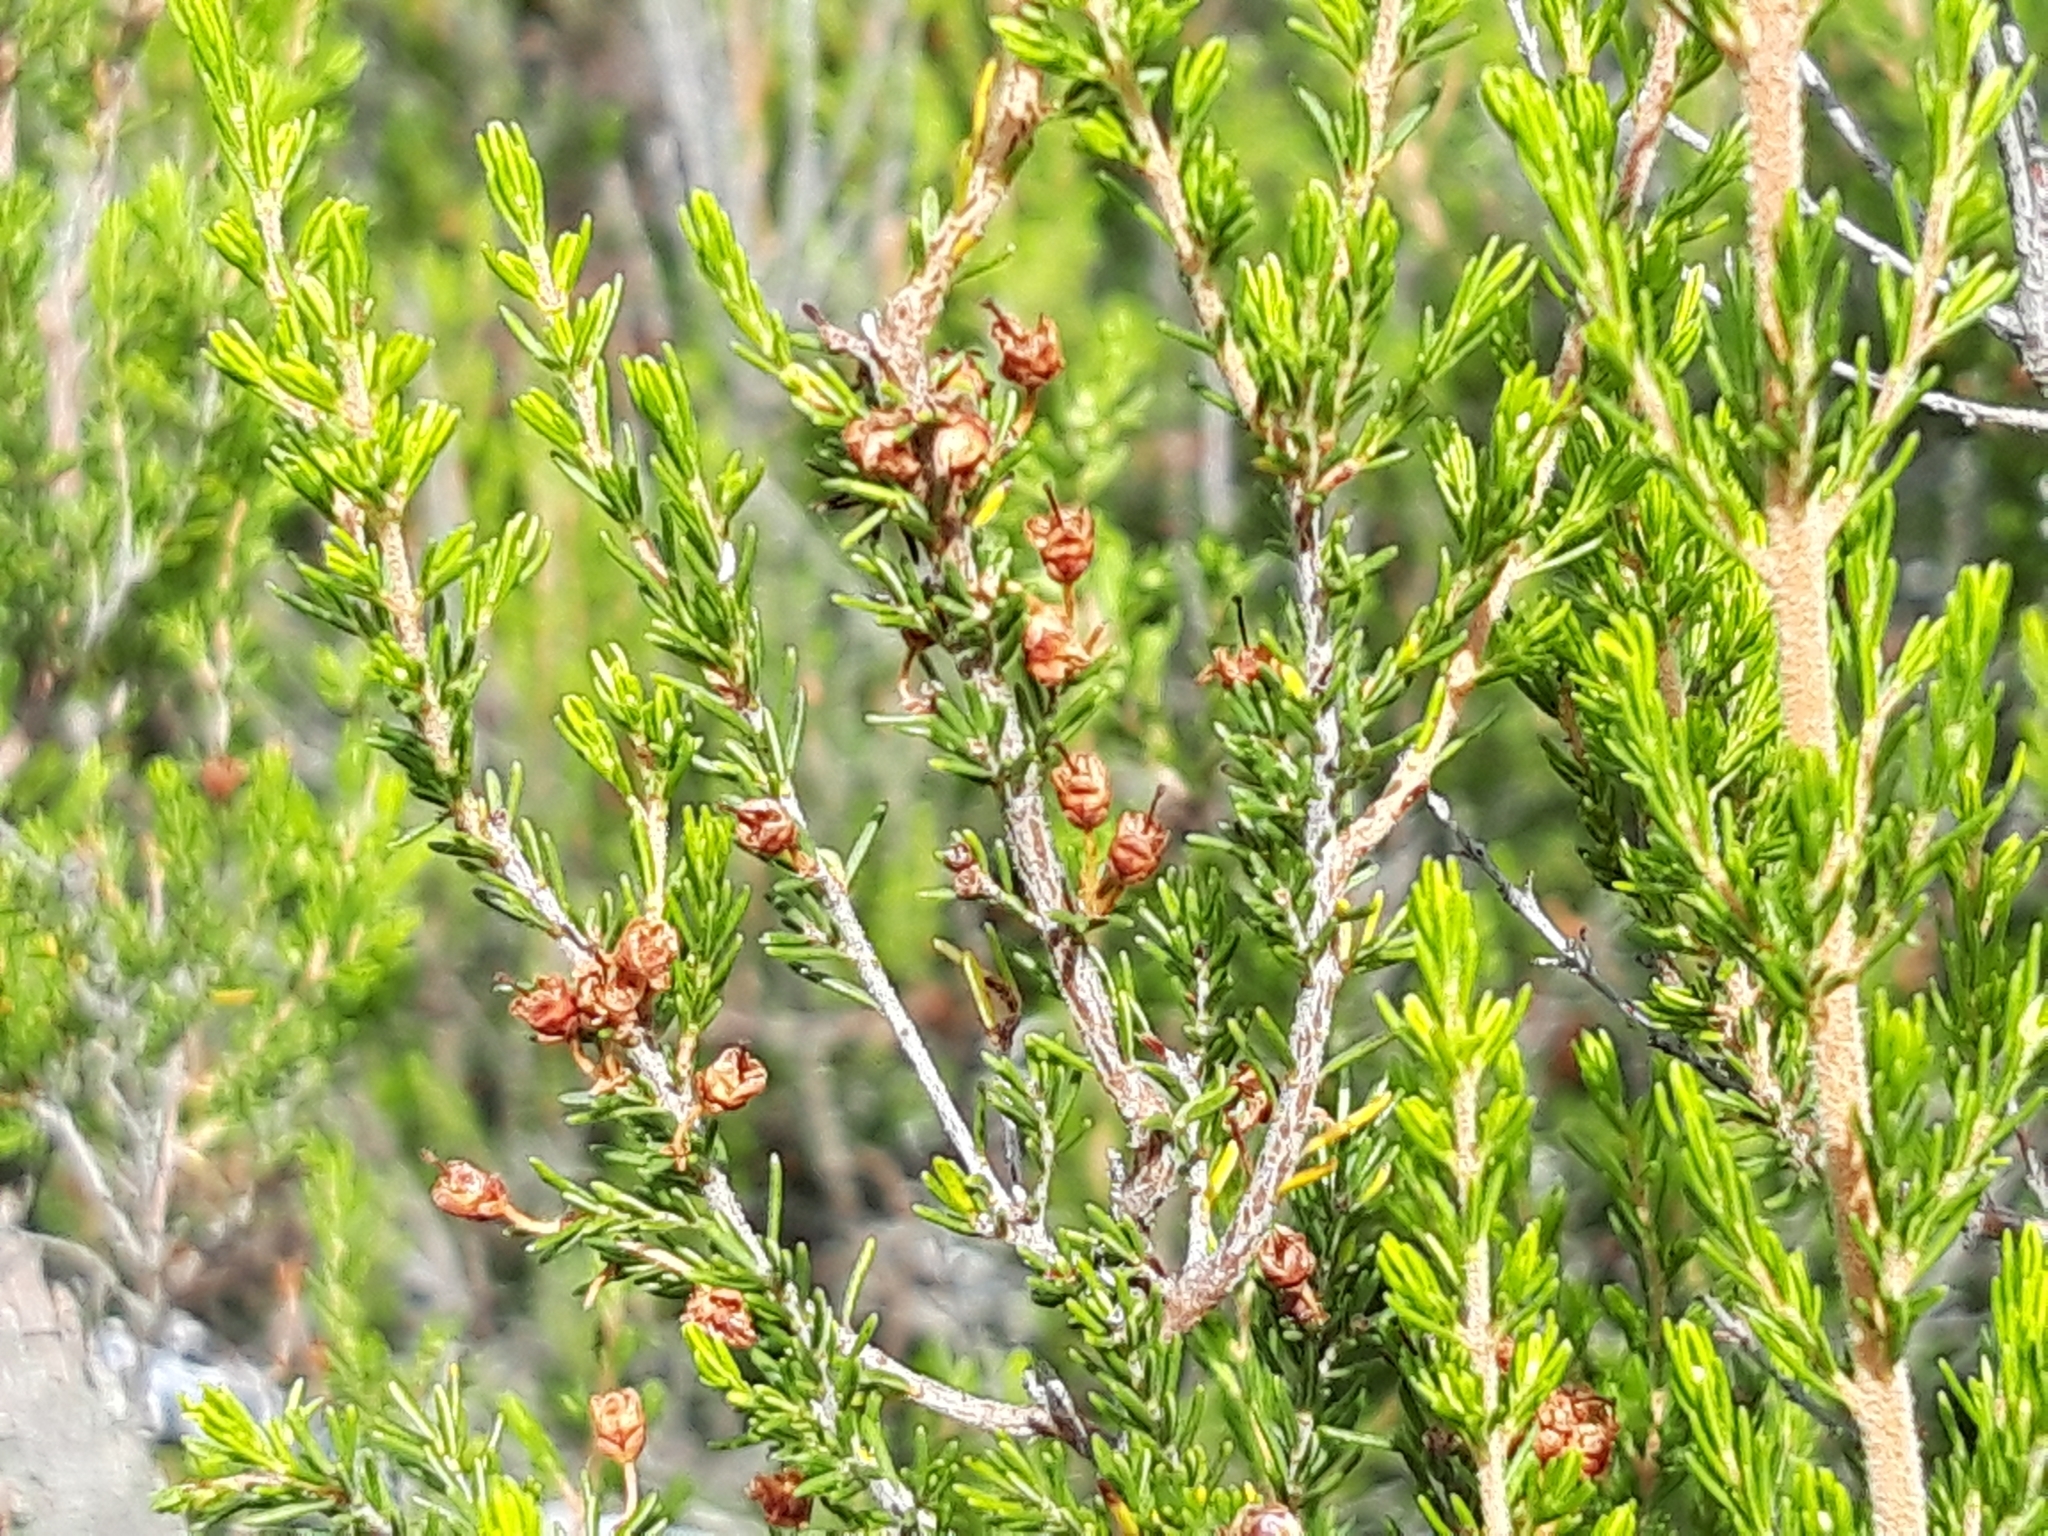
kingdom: Plantae
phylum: Tracheophyta
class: Magnoliopsida
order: Ericales
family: Ericaceae
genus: Erica
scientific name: Erica arborea
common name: Tree heath
